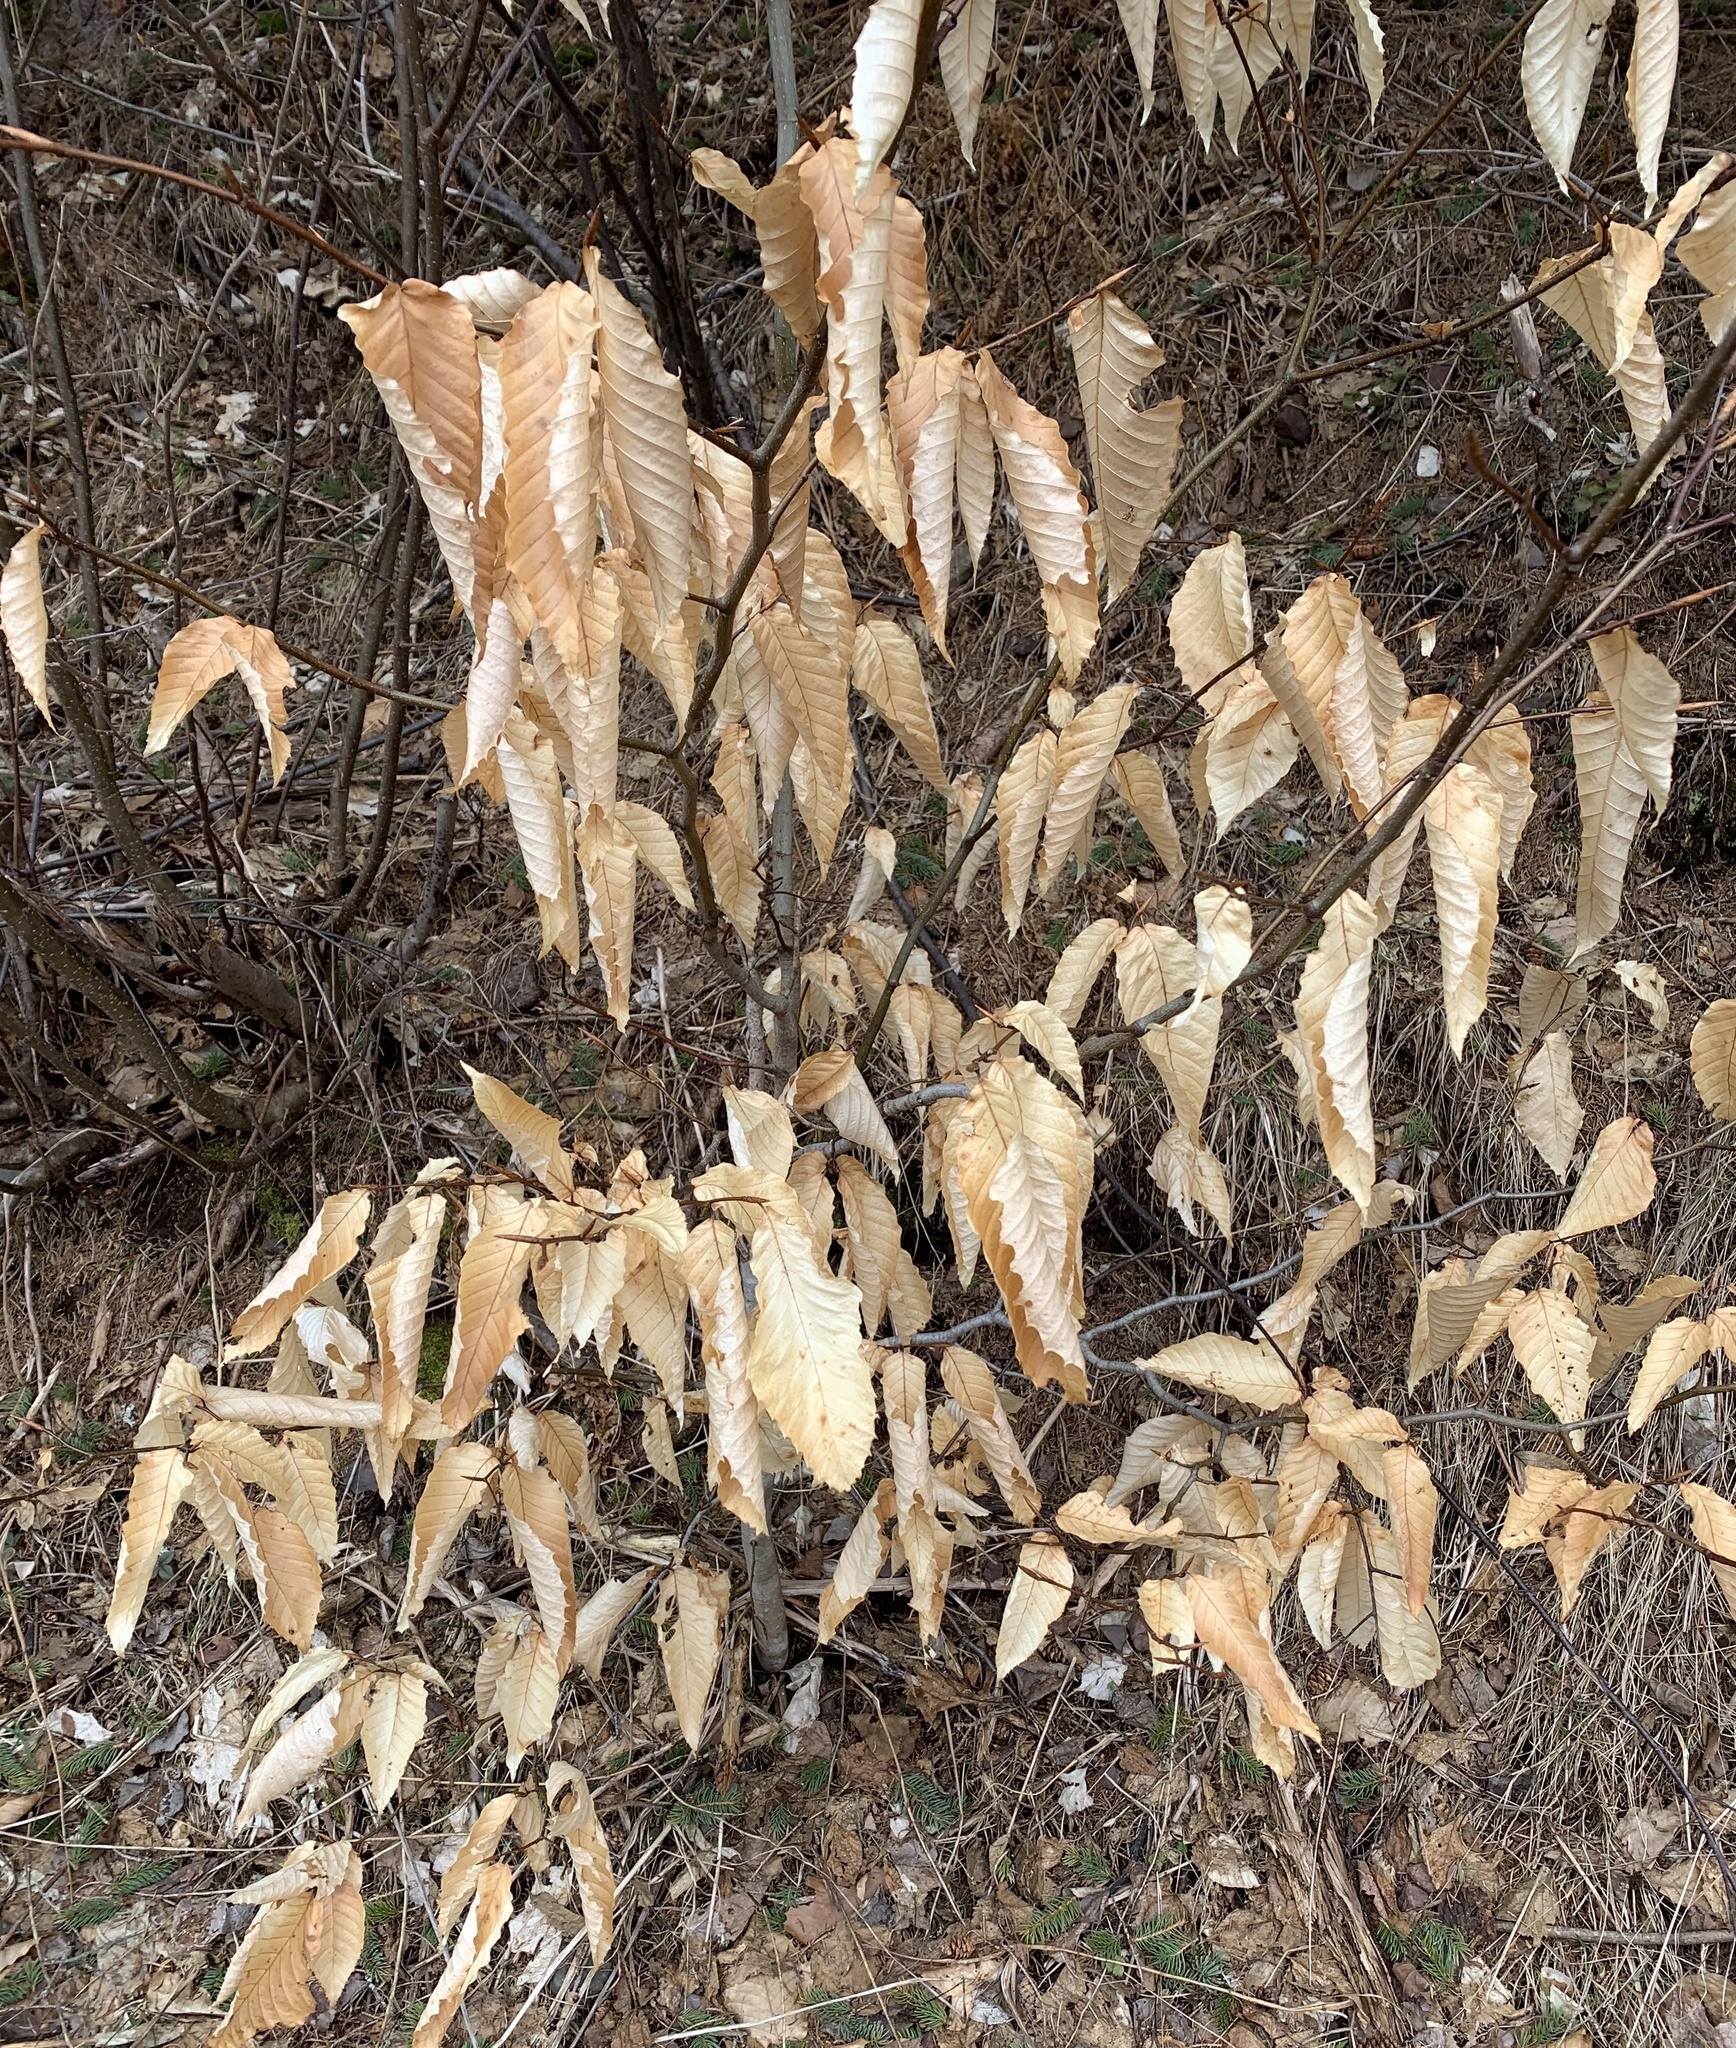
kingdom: Plantae
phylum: Tracheophyta
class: Magnoliopsida
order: Fagales
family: Fagaceae
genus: Fagus
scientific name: Fagus grandifolia
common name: American beech
